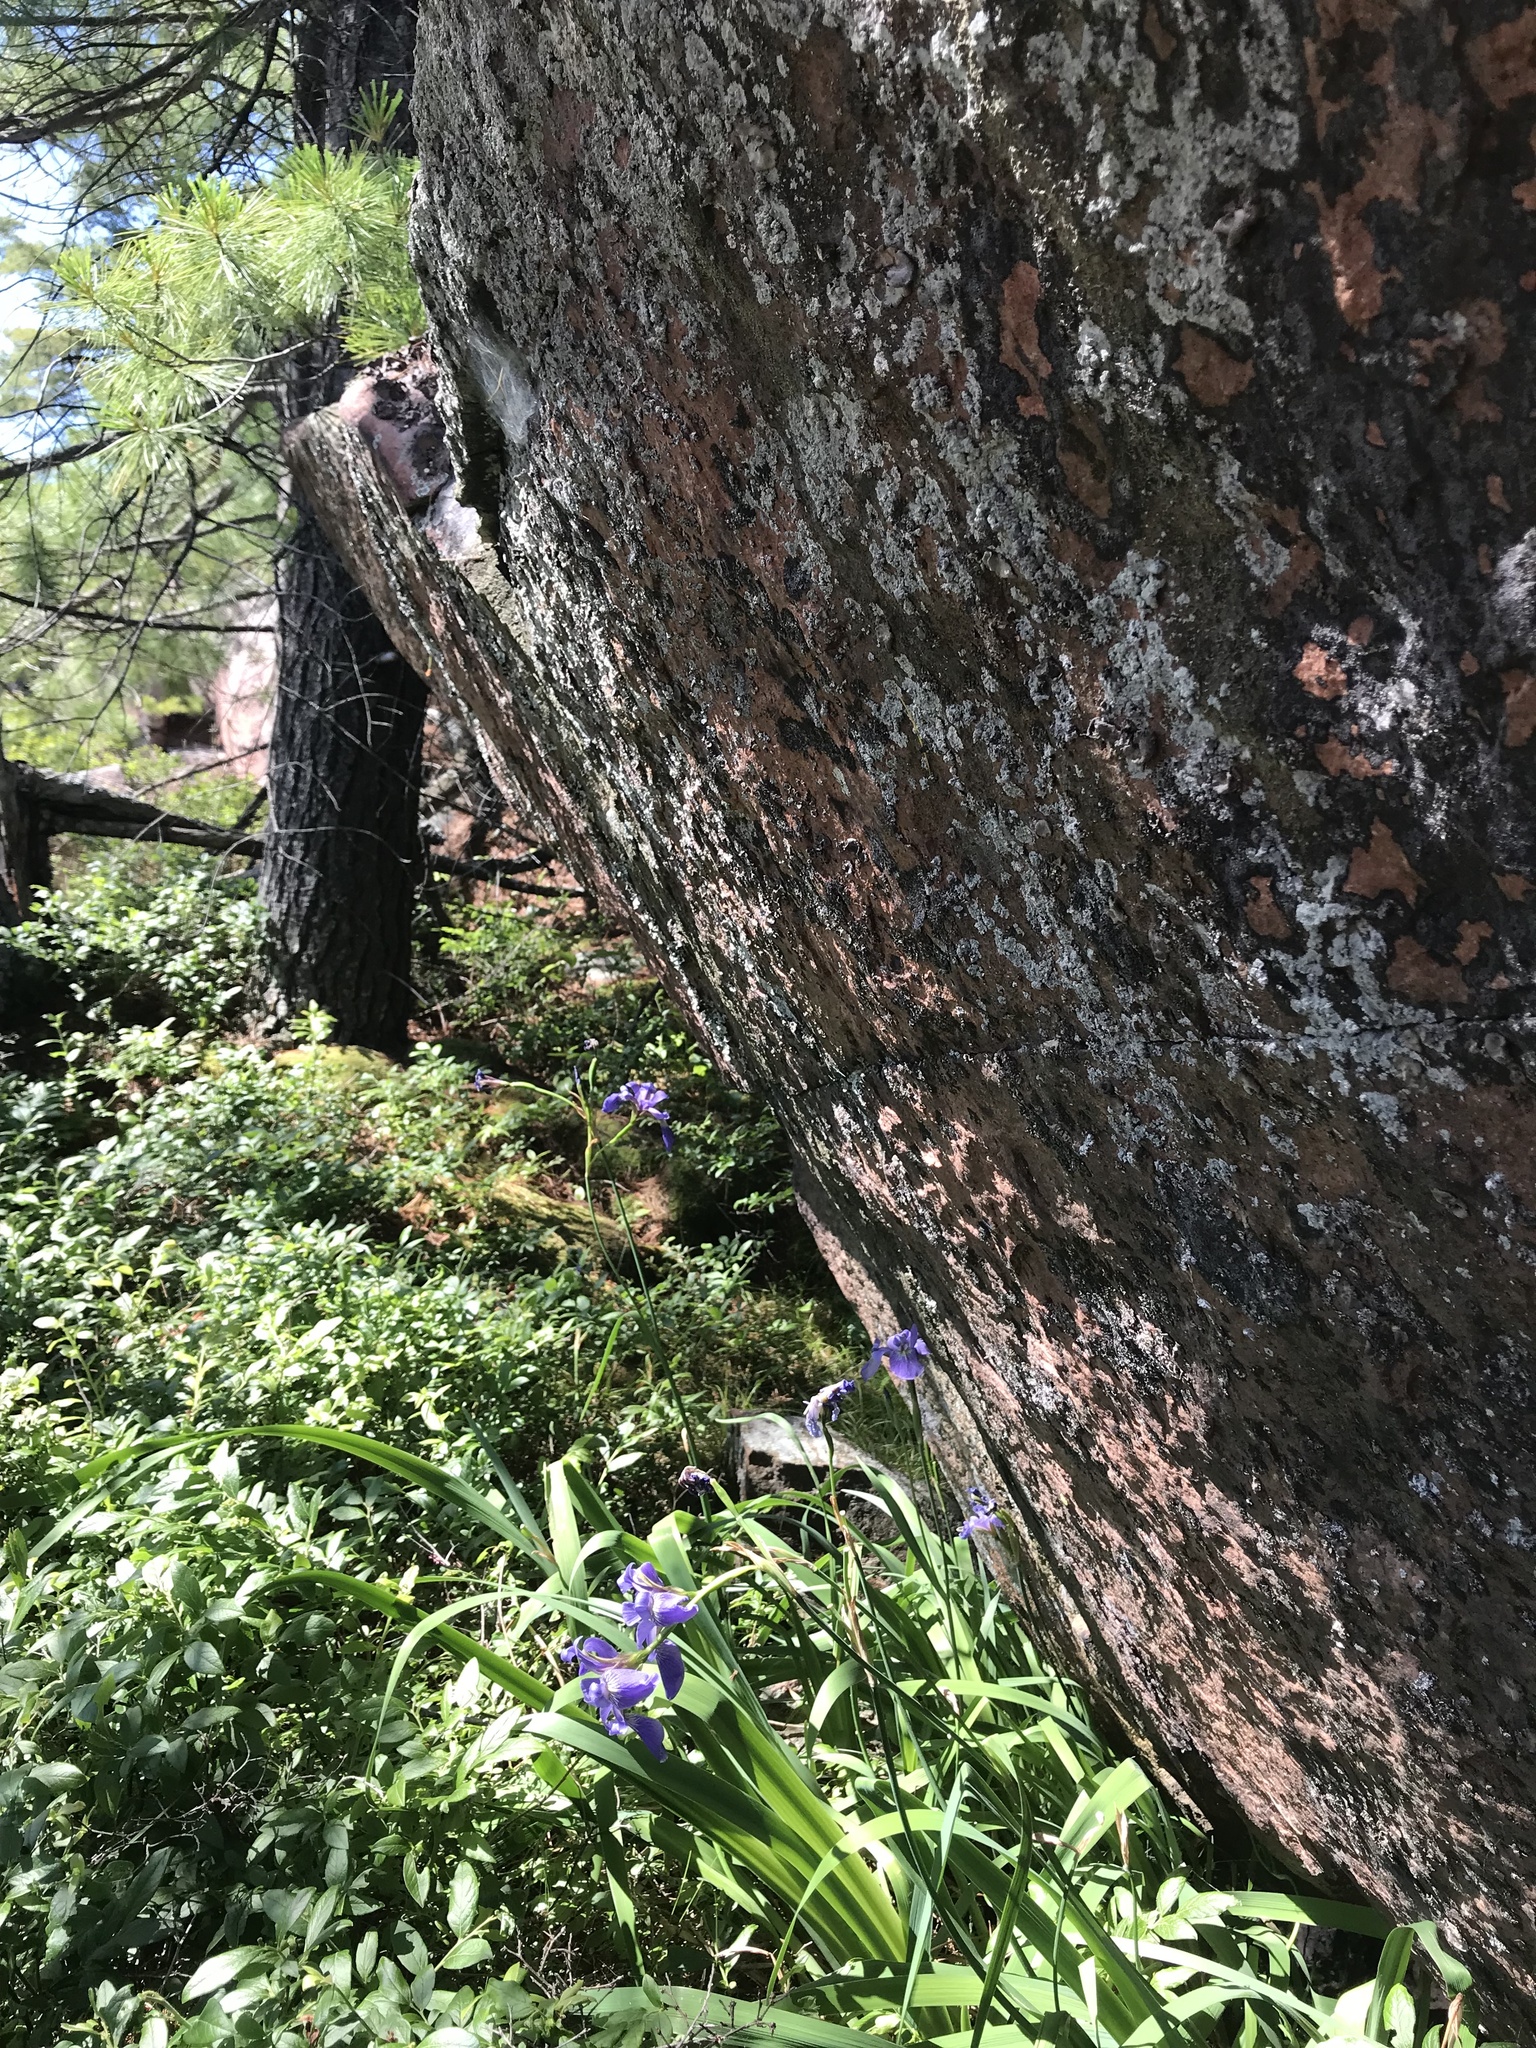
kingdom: Plantae
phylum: Tracheophyta
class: Liliopsida
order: Asparagales
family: Iridaceae
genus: Iris
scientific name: Iris versicolor
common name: Purple iris
